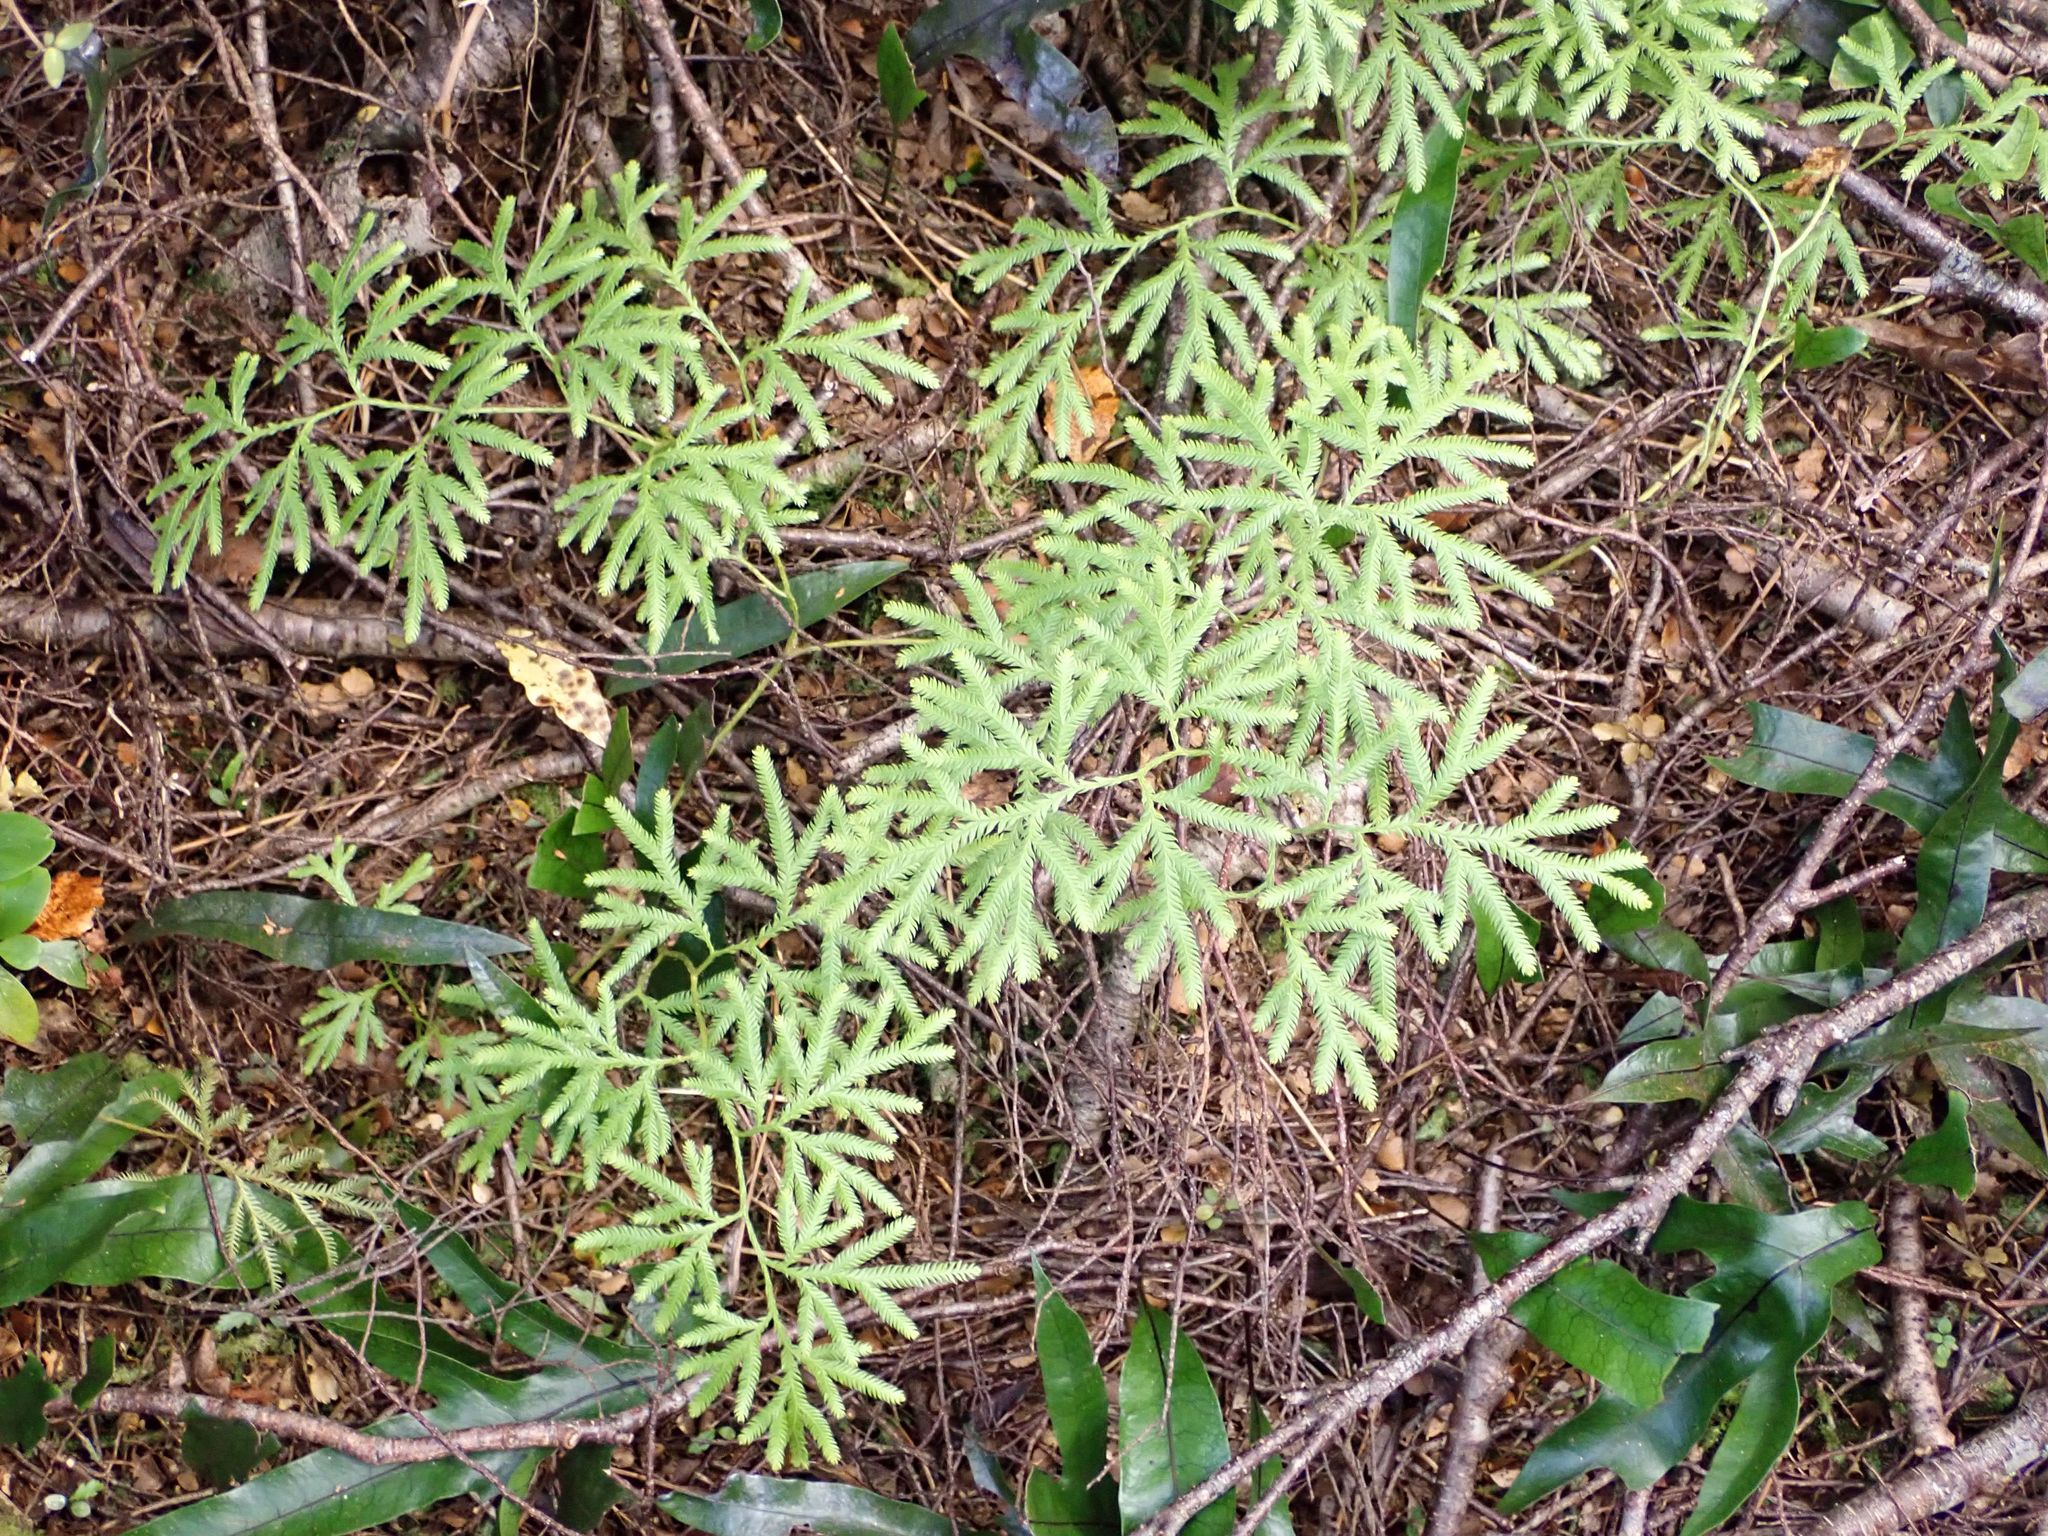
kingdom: Plantae
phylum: Tracheophyta
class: Lycopodiopsida
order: Lycopodiales
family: Lycopodiaceae
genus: Lycopodium
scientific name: Lycopodium volubile
